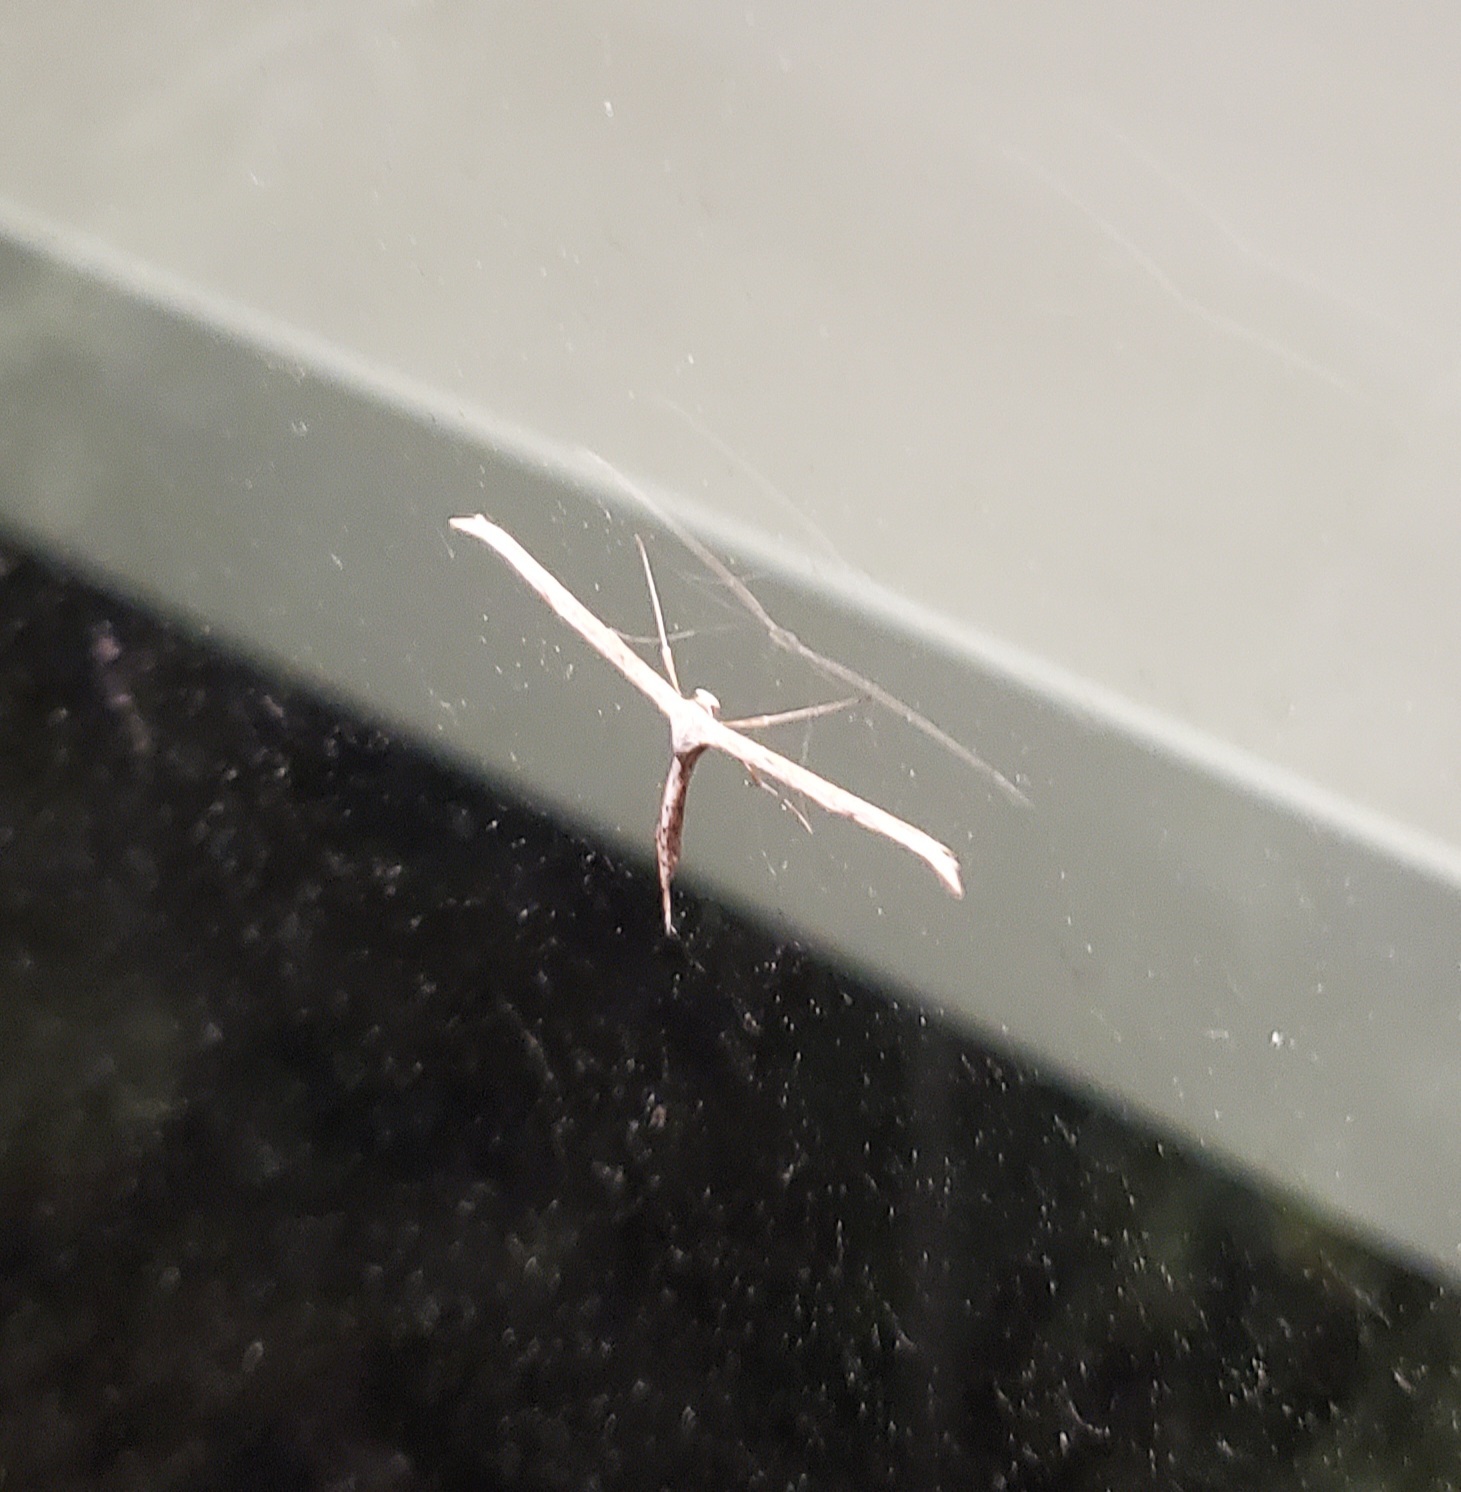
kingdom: Animalia
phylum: Arthropoda
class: Insecta
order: Lepidoptera
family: Pterophoridae
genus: Emmelina
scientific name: Emmelina monodactyla
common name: Common plume
